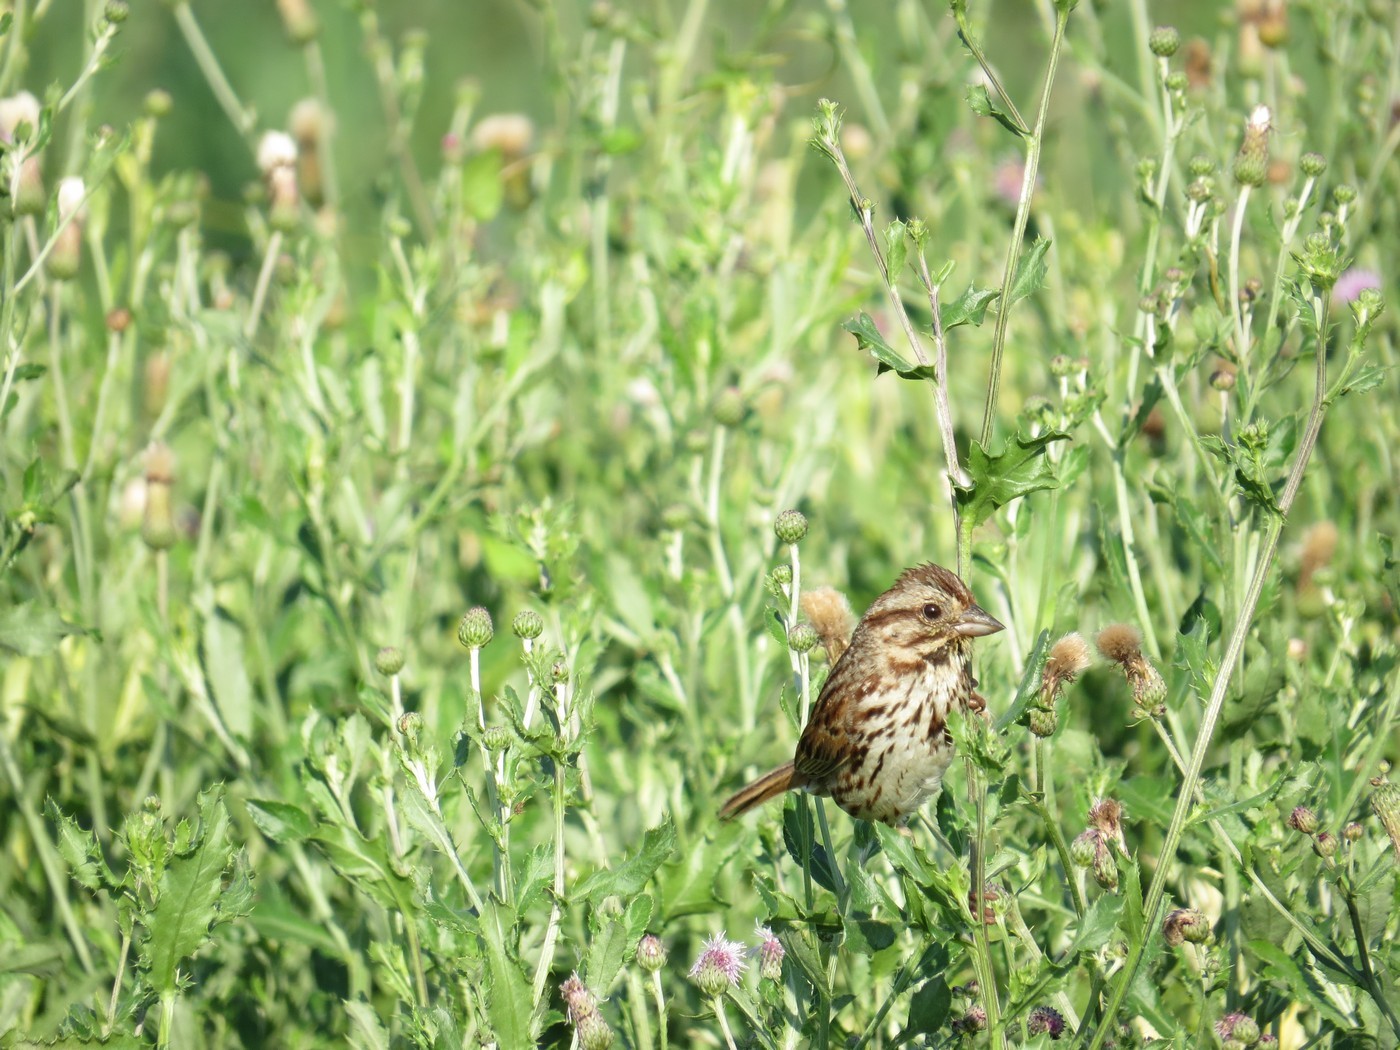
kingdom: Animalia
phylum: Chordata
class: Aves
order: Passeriformes
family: Passerellidae
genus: Melospiza
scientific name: Melospiza melodia
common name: Song sparrow
